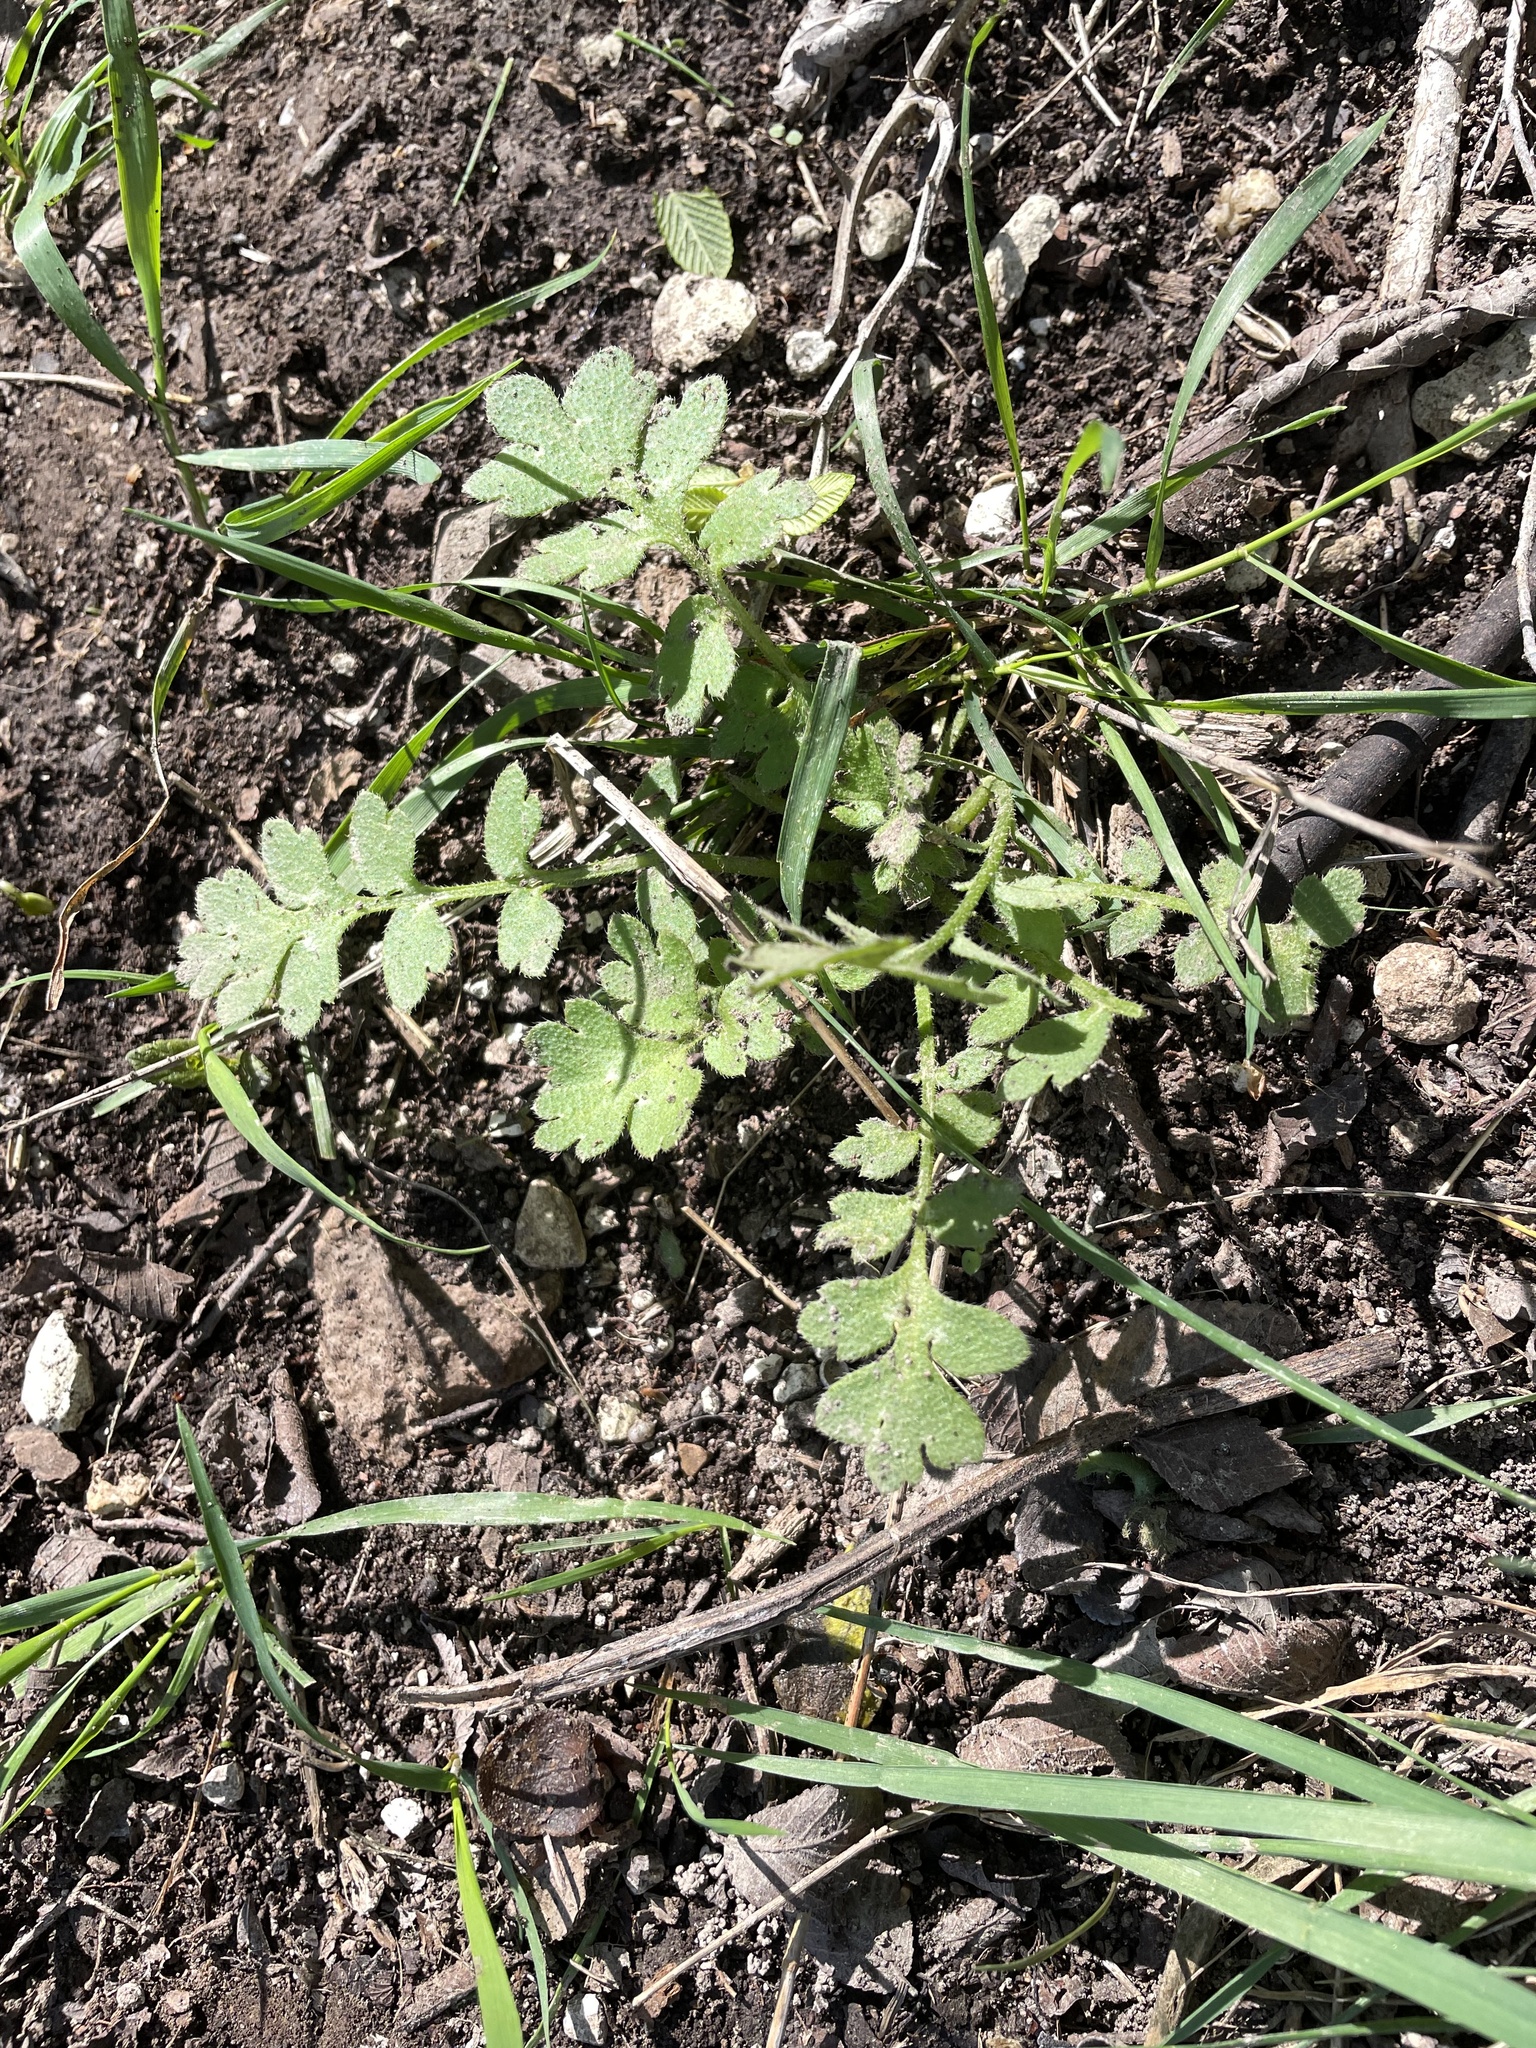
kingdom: Plantae
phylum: Tracheophyta
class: Magnoliopsida
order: Boraginales
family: Hydrophyllaceae
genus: Nemophila
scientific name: Nemophila phacelioides
